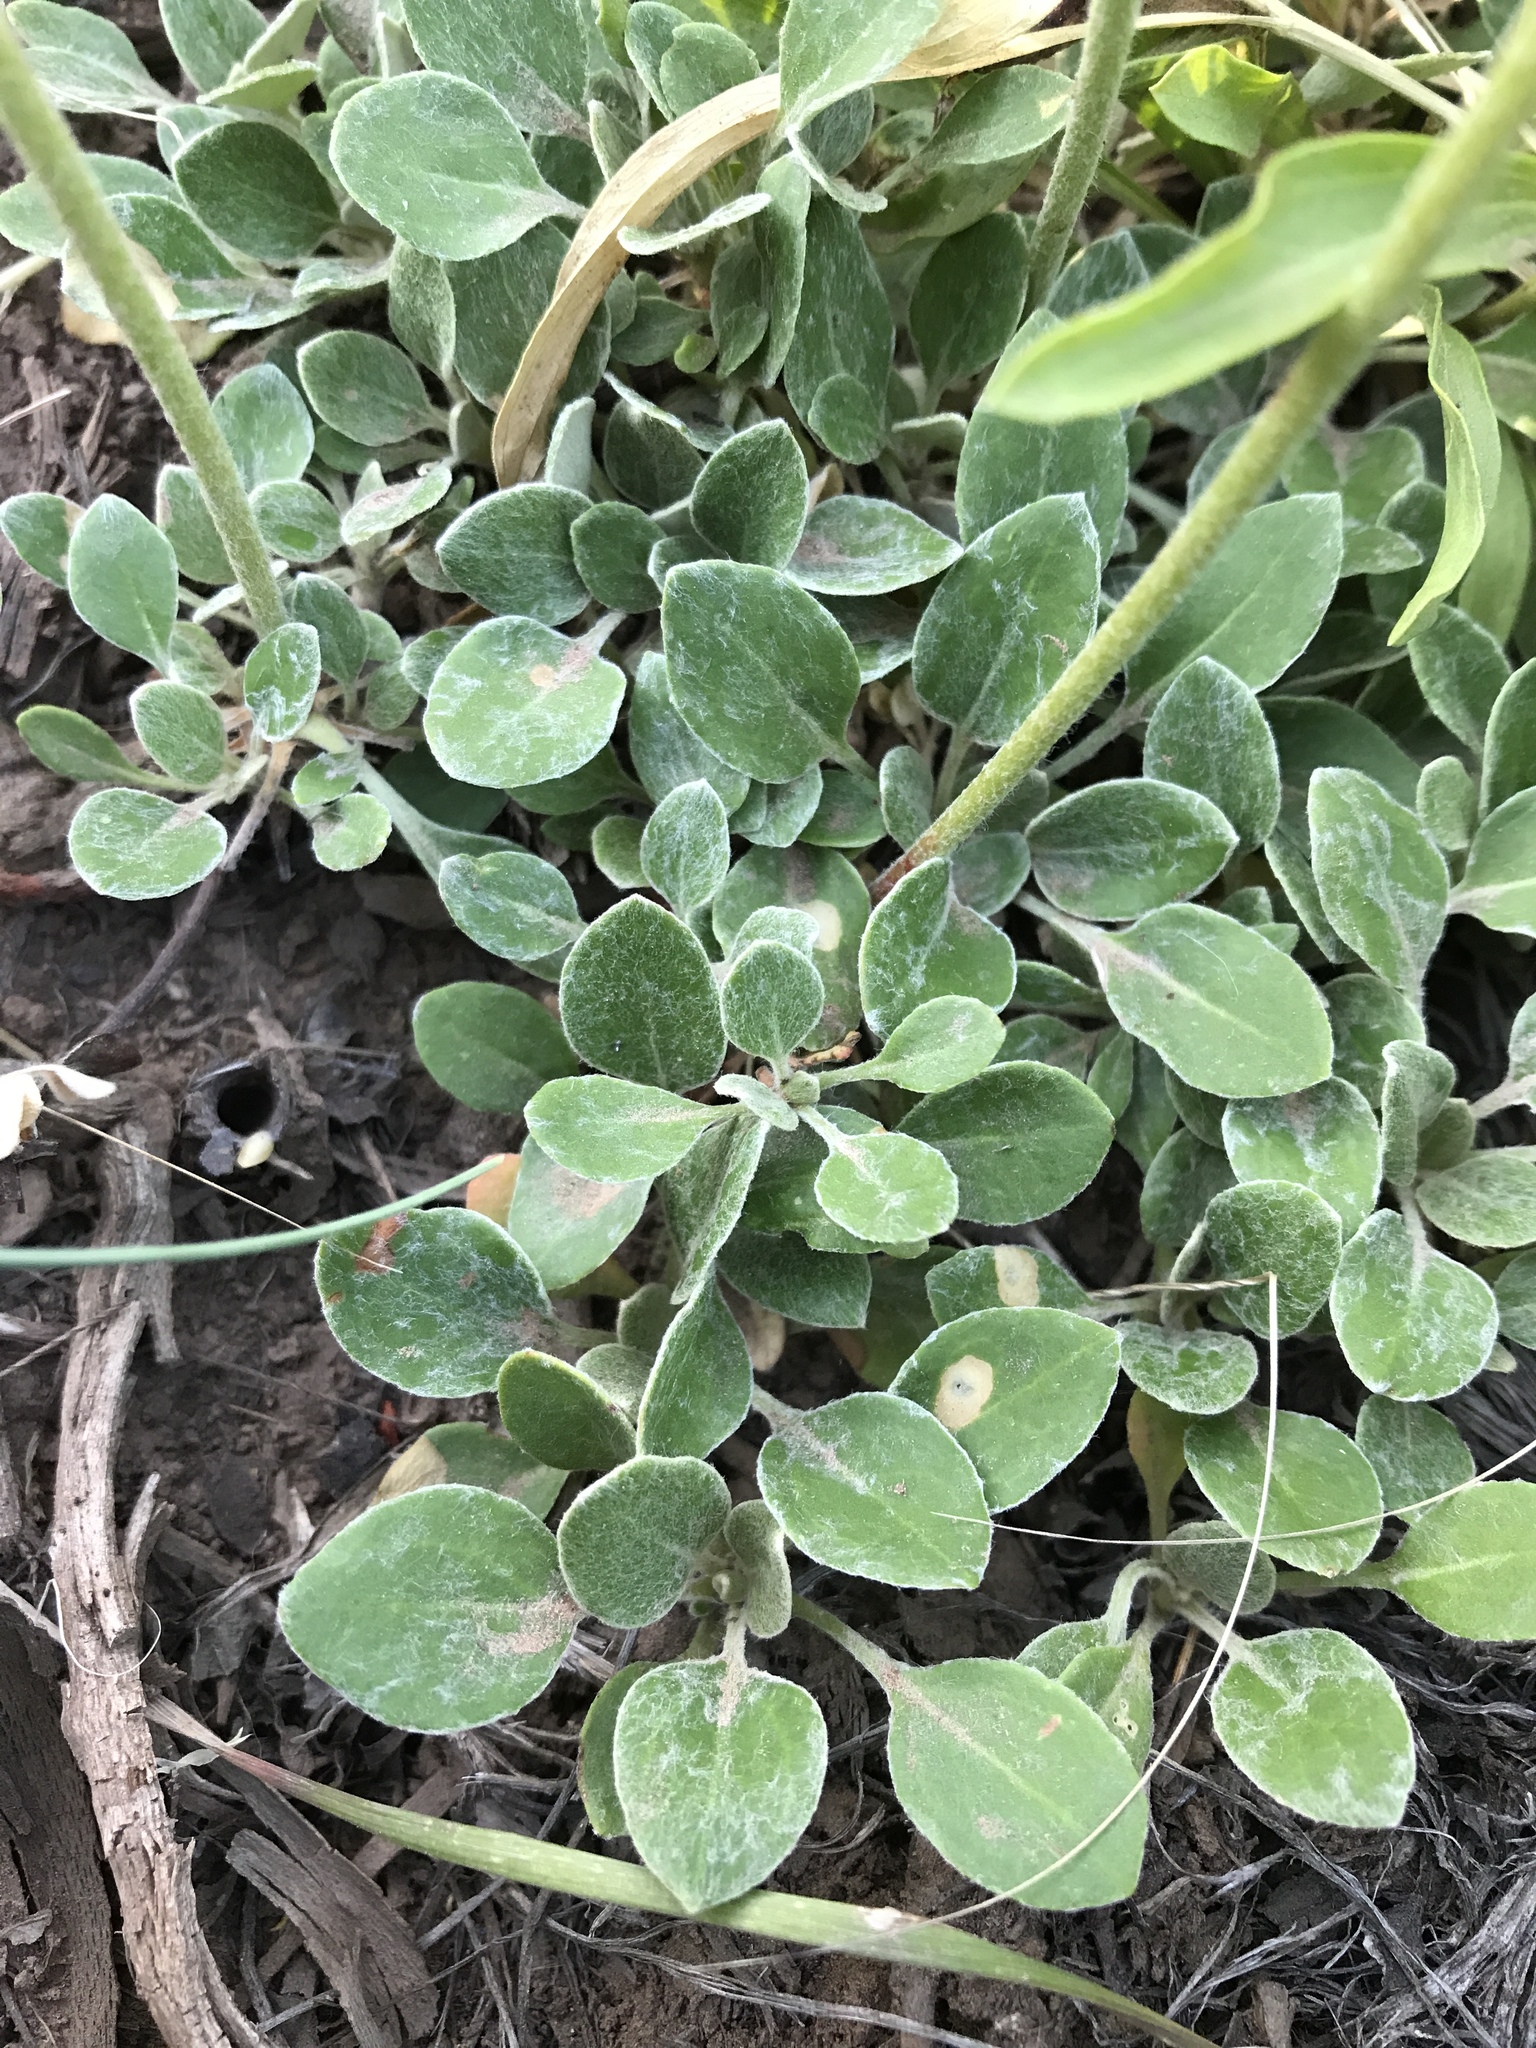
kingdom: Plantae
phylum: Tracheophyta
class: Magnoliopsida
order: Caryophyllales
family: Polygonaceae
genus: Eriogonum
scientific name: Eriogonum umbellatum
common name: Sulfur-buckwheat
